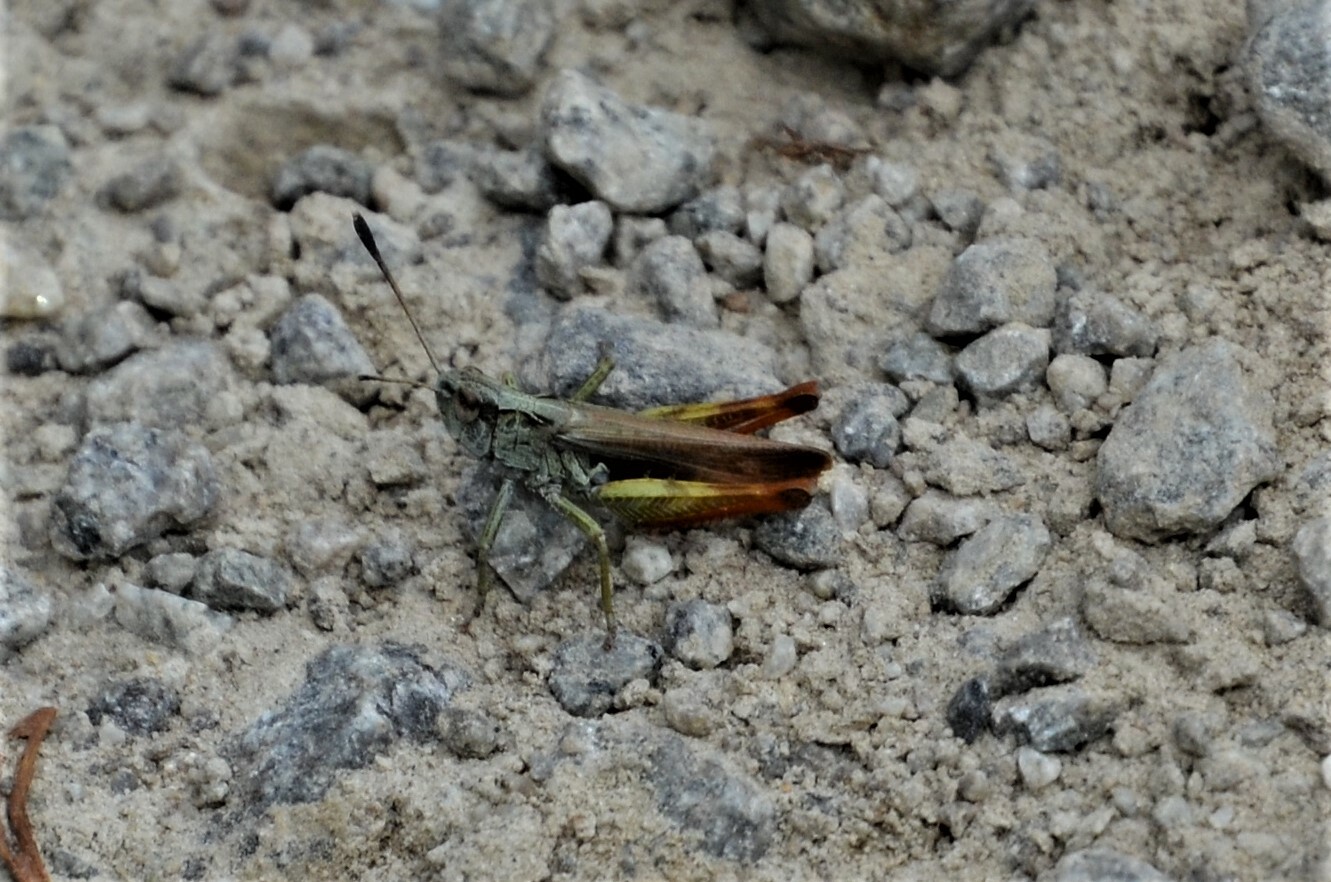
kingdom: Animalia
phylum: Arthropoda
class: Insecta
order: Orthoptera
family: Acrididae
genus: Gomphocerippus
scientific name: Gomphocerippus rufus
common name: Rufous grasshopper
